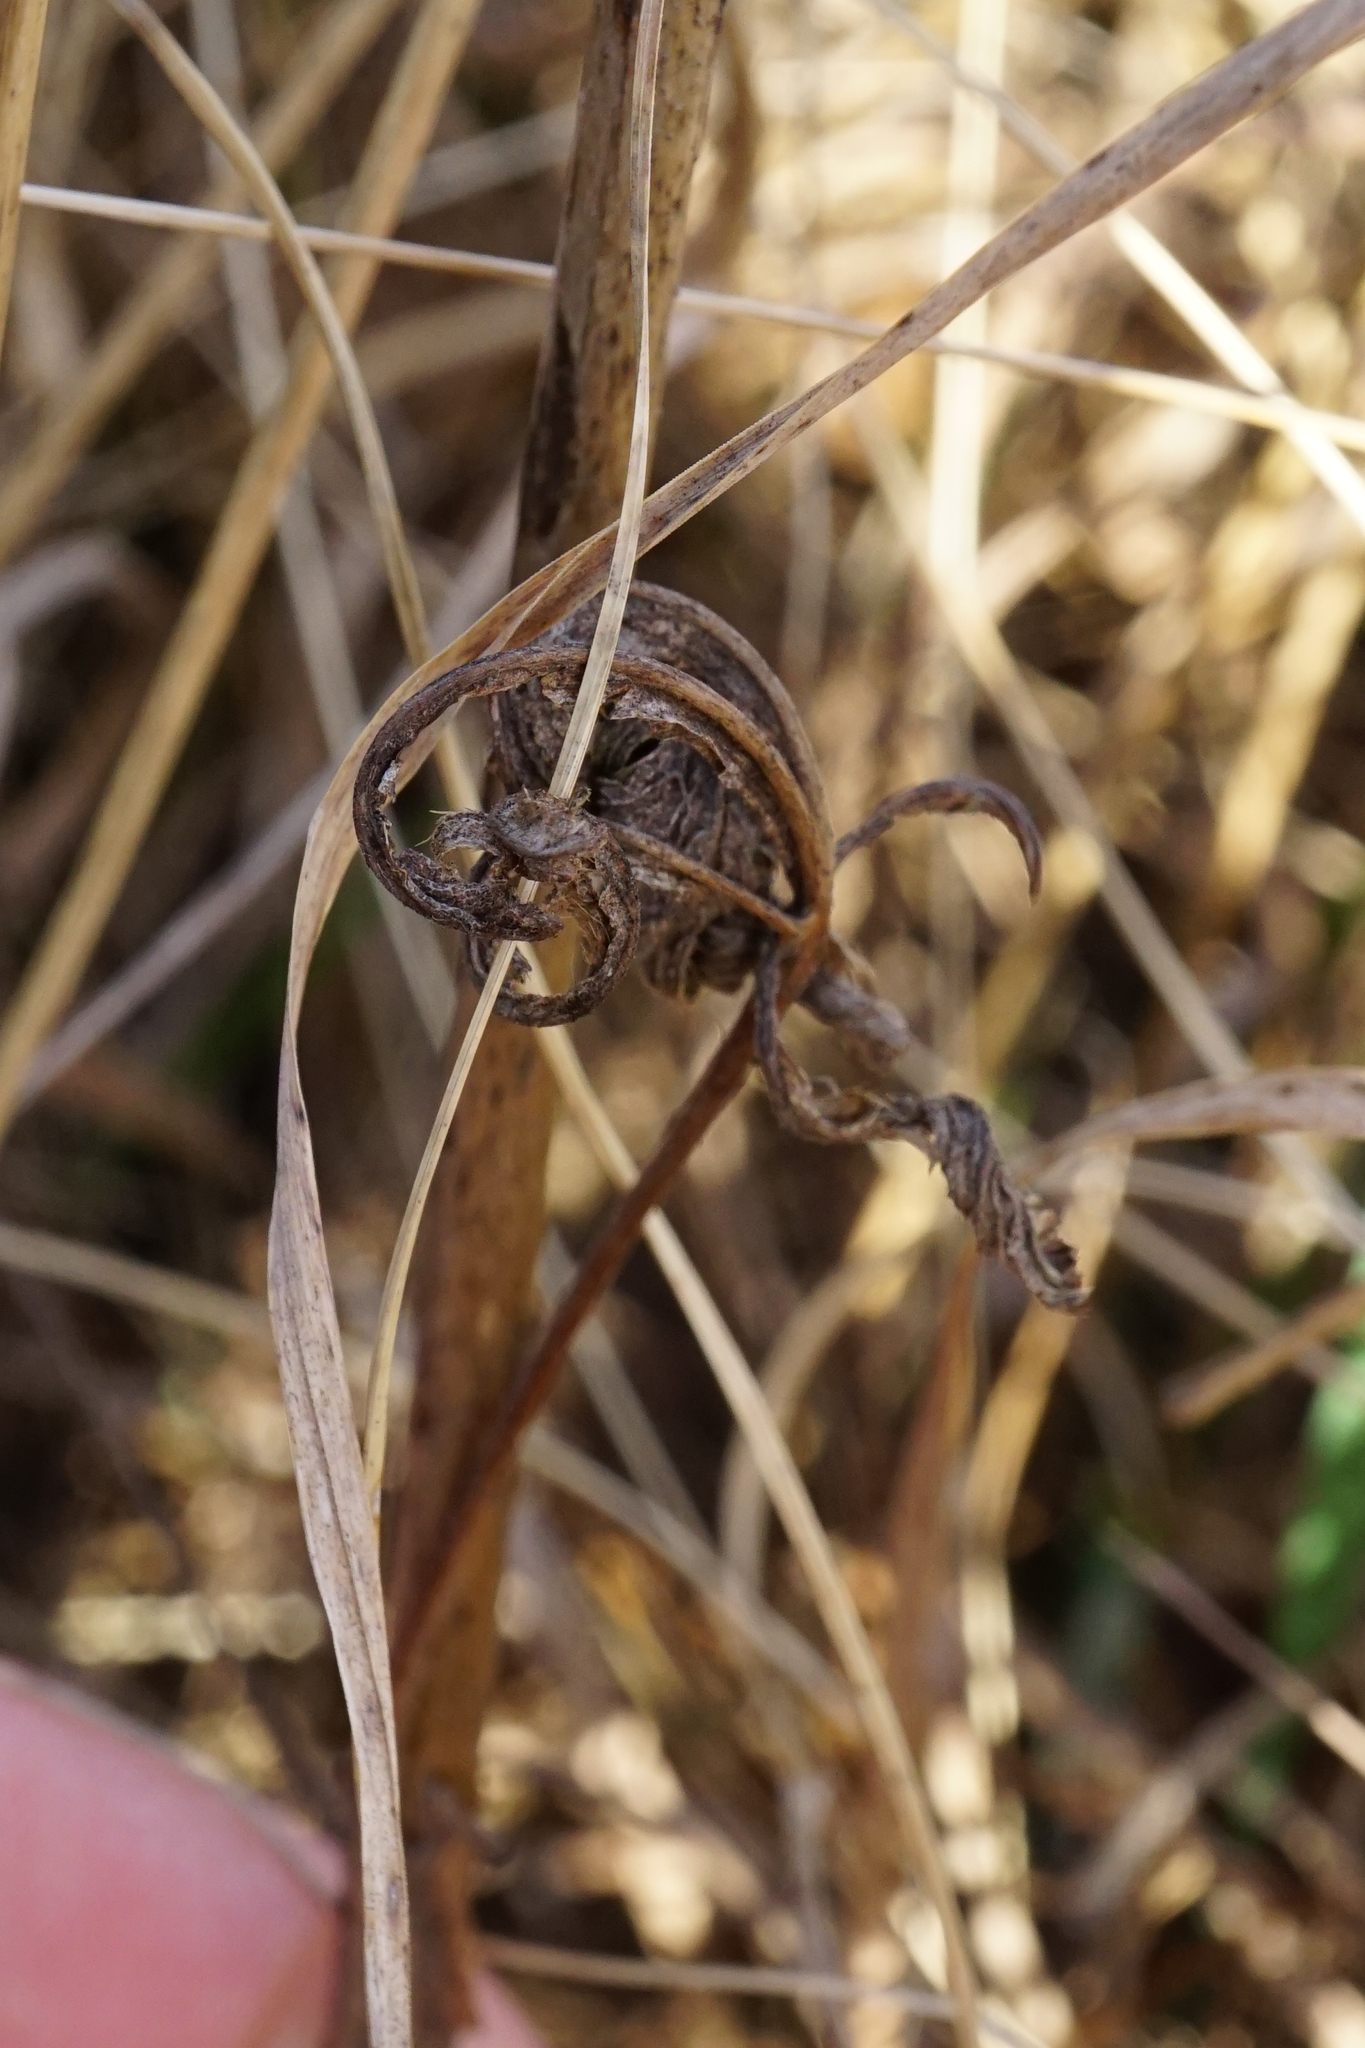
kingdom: Plantae
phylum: Tracheophyta
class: Magnoliopsida
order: Rosales
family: Rosaceae
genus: Potentilla
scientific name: Potentilla recta
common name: Sulphur cinquefoil
